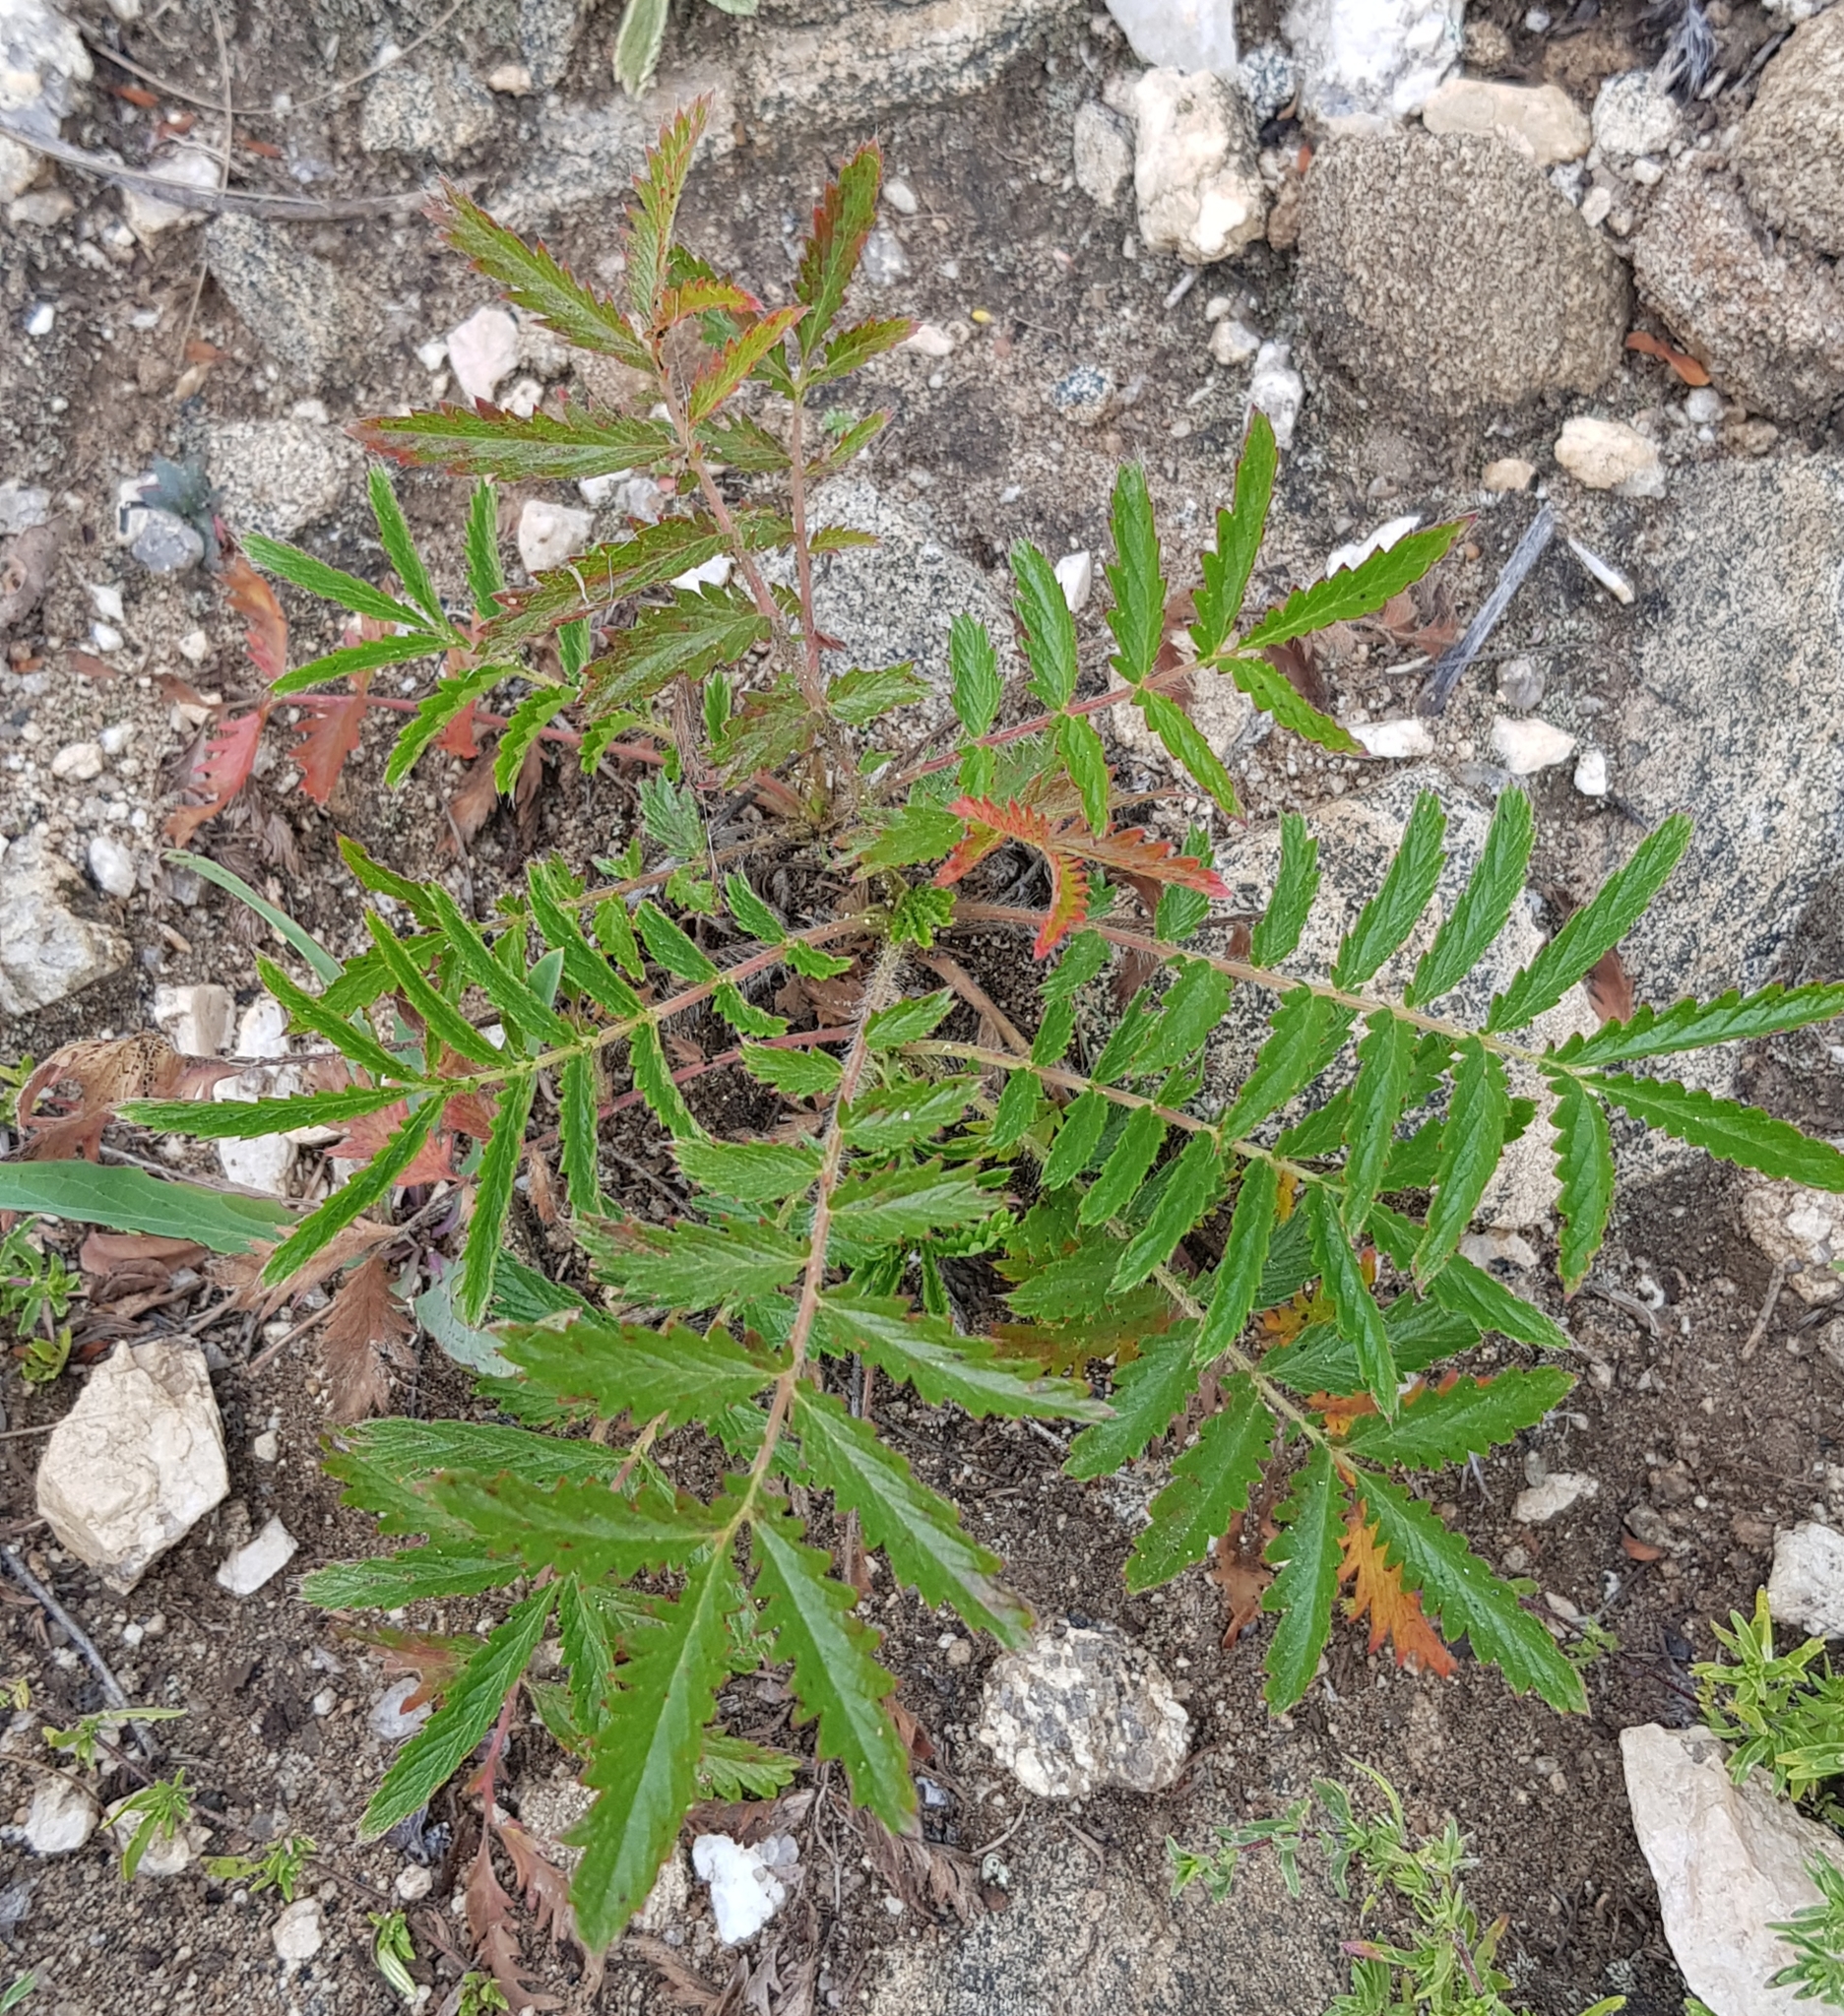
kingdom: Plantae
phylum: Tracheophyta
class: Magnoliopsida
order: Rosales
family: Rosaceae
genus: Potentilla
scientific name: Potentilla longifolia
